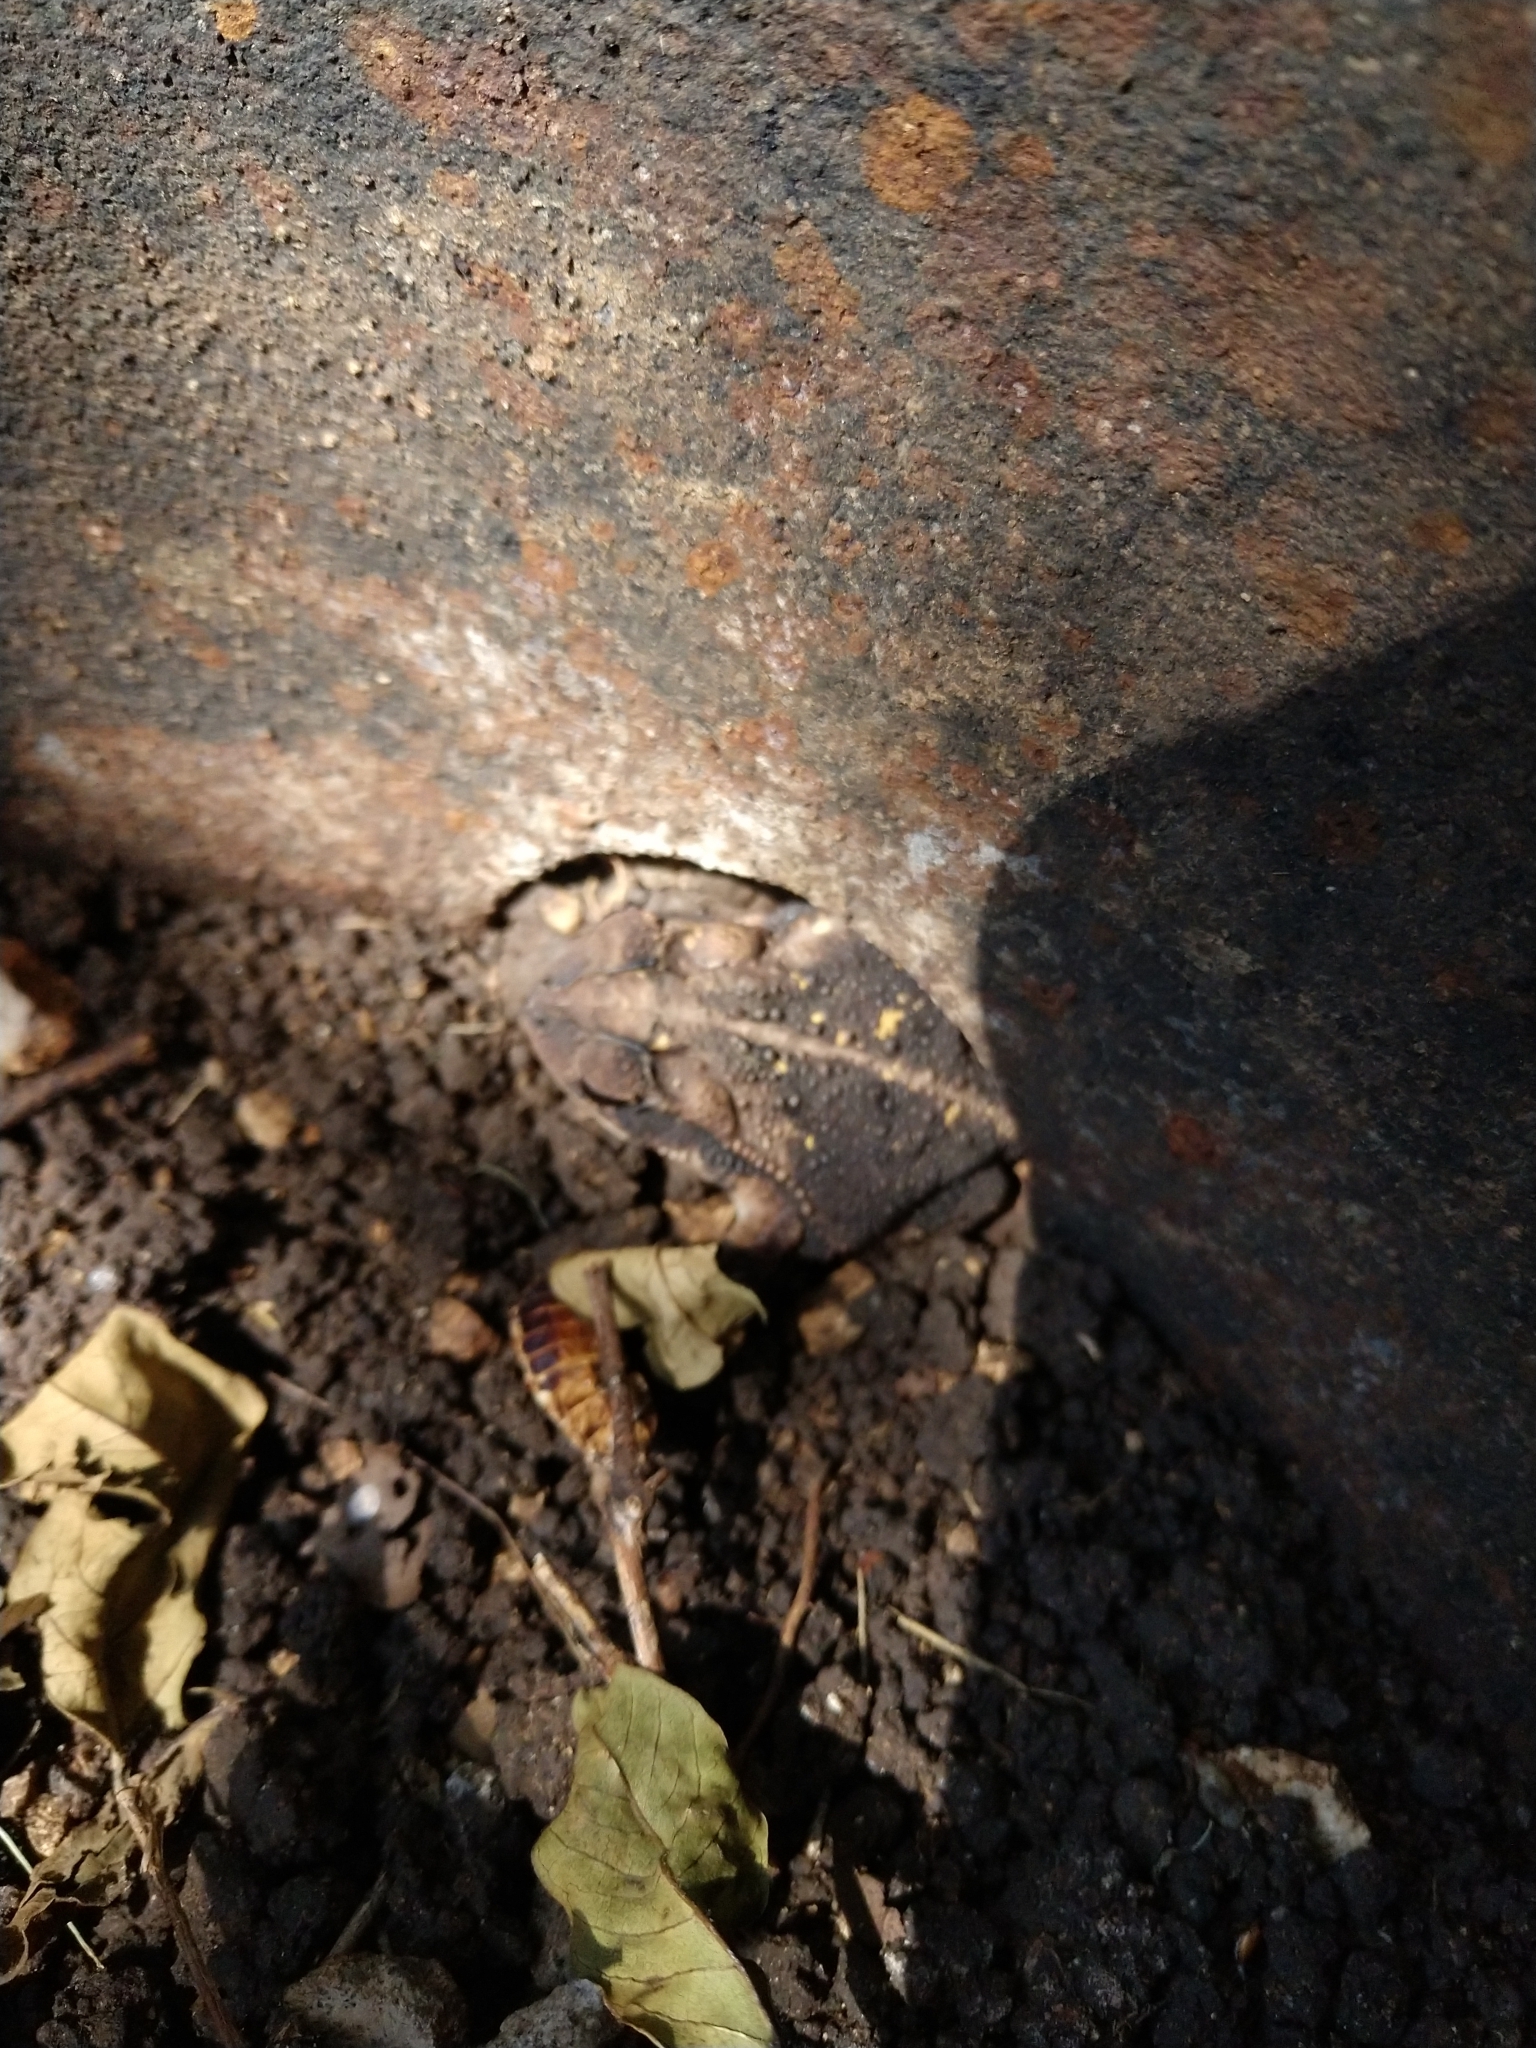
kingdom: Animalia
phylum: Chordata
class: Amphibia
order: Anura
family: Bufonidae
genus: Incilius
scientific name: Incilius nebulifer
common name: Gulf coast toad
